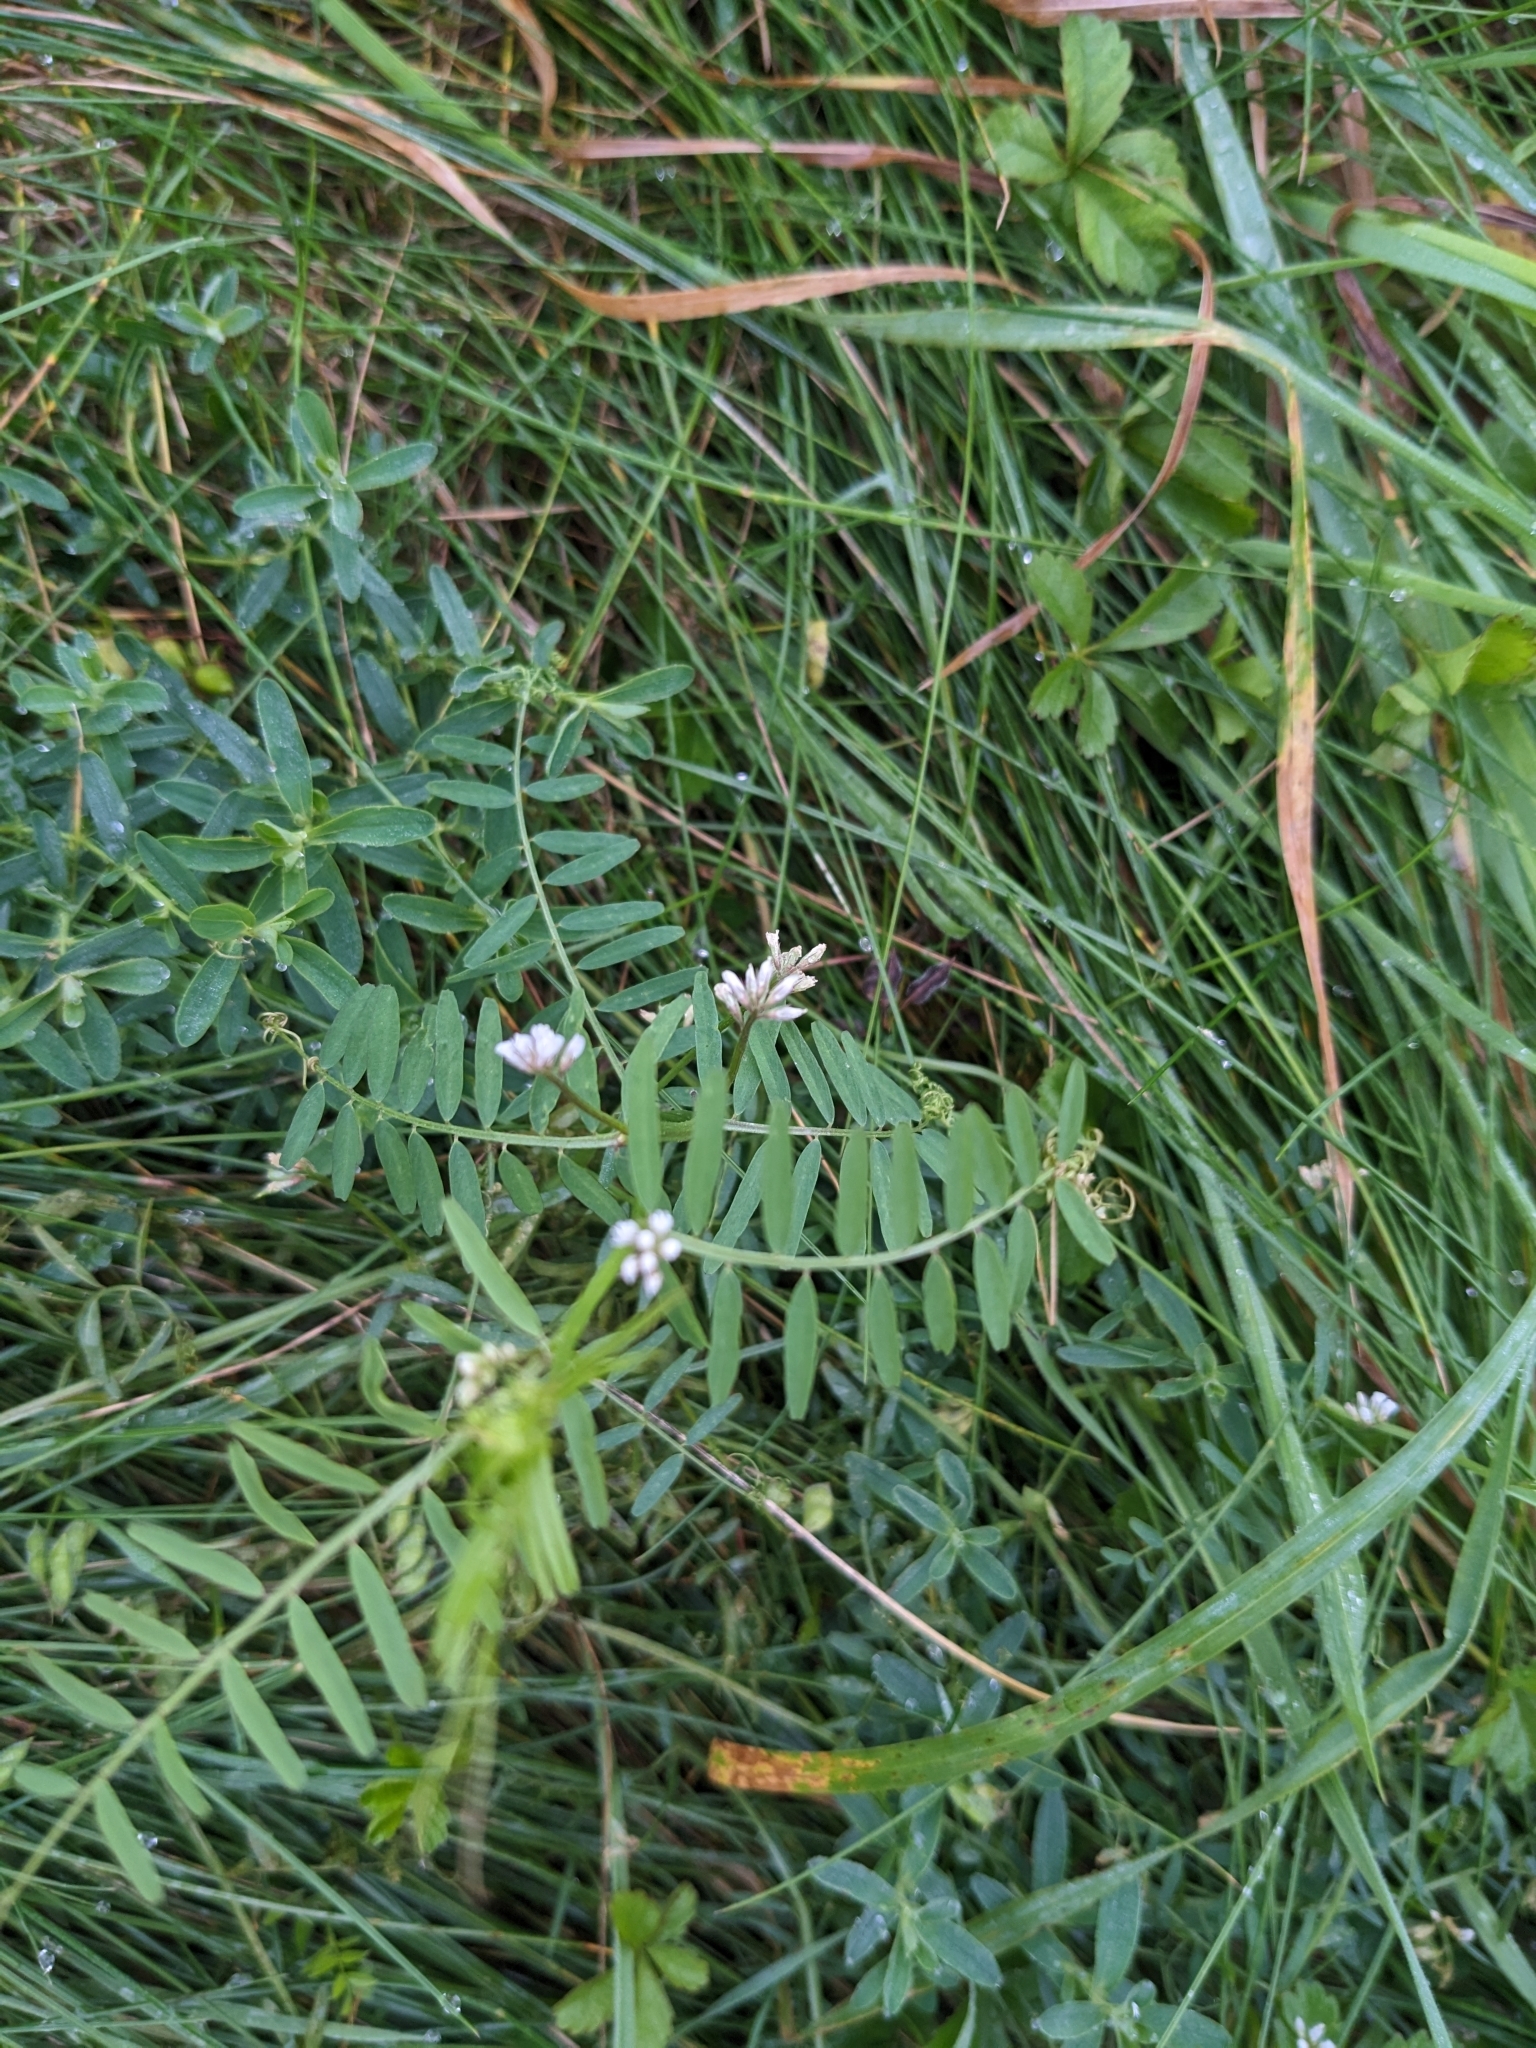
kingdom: Plantae
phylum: Tracheophyta
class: Magnoliopsida
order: Fabales
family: Fabaceae
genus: Vicia
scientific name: Vicia hirsuta
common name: Tiny vetch
